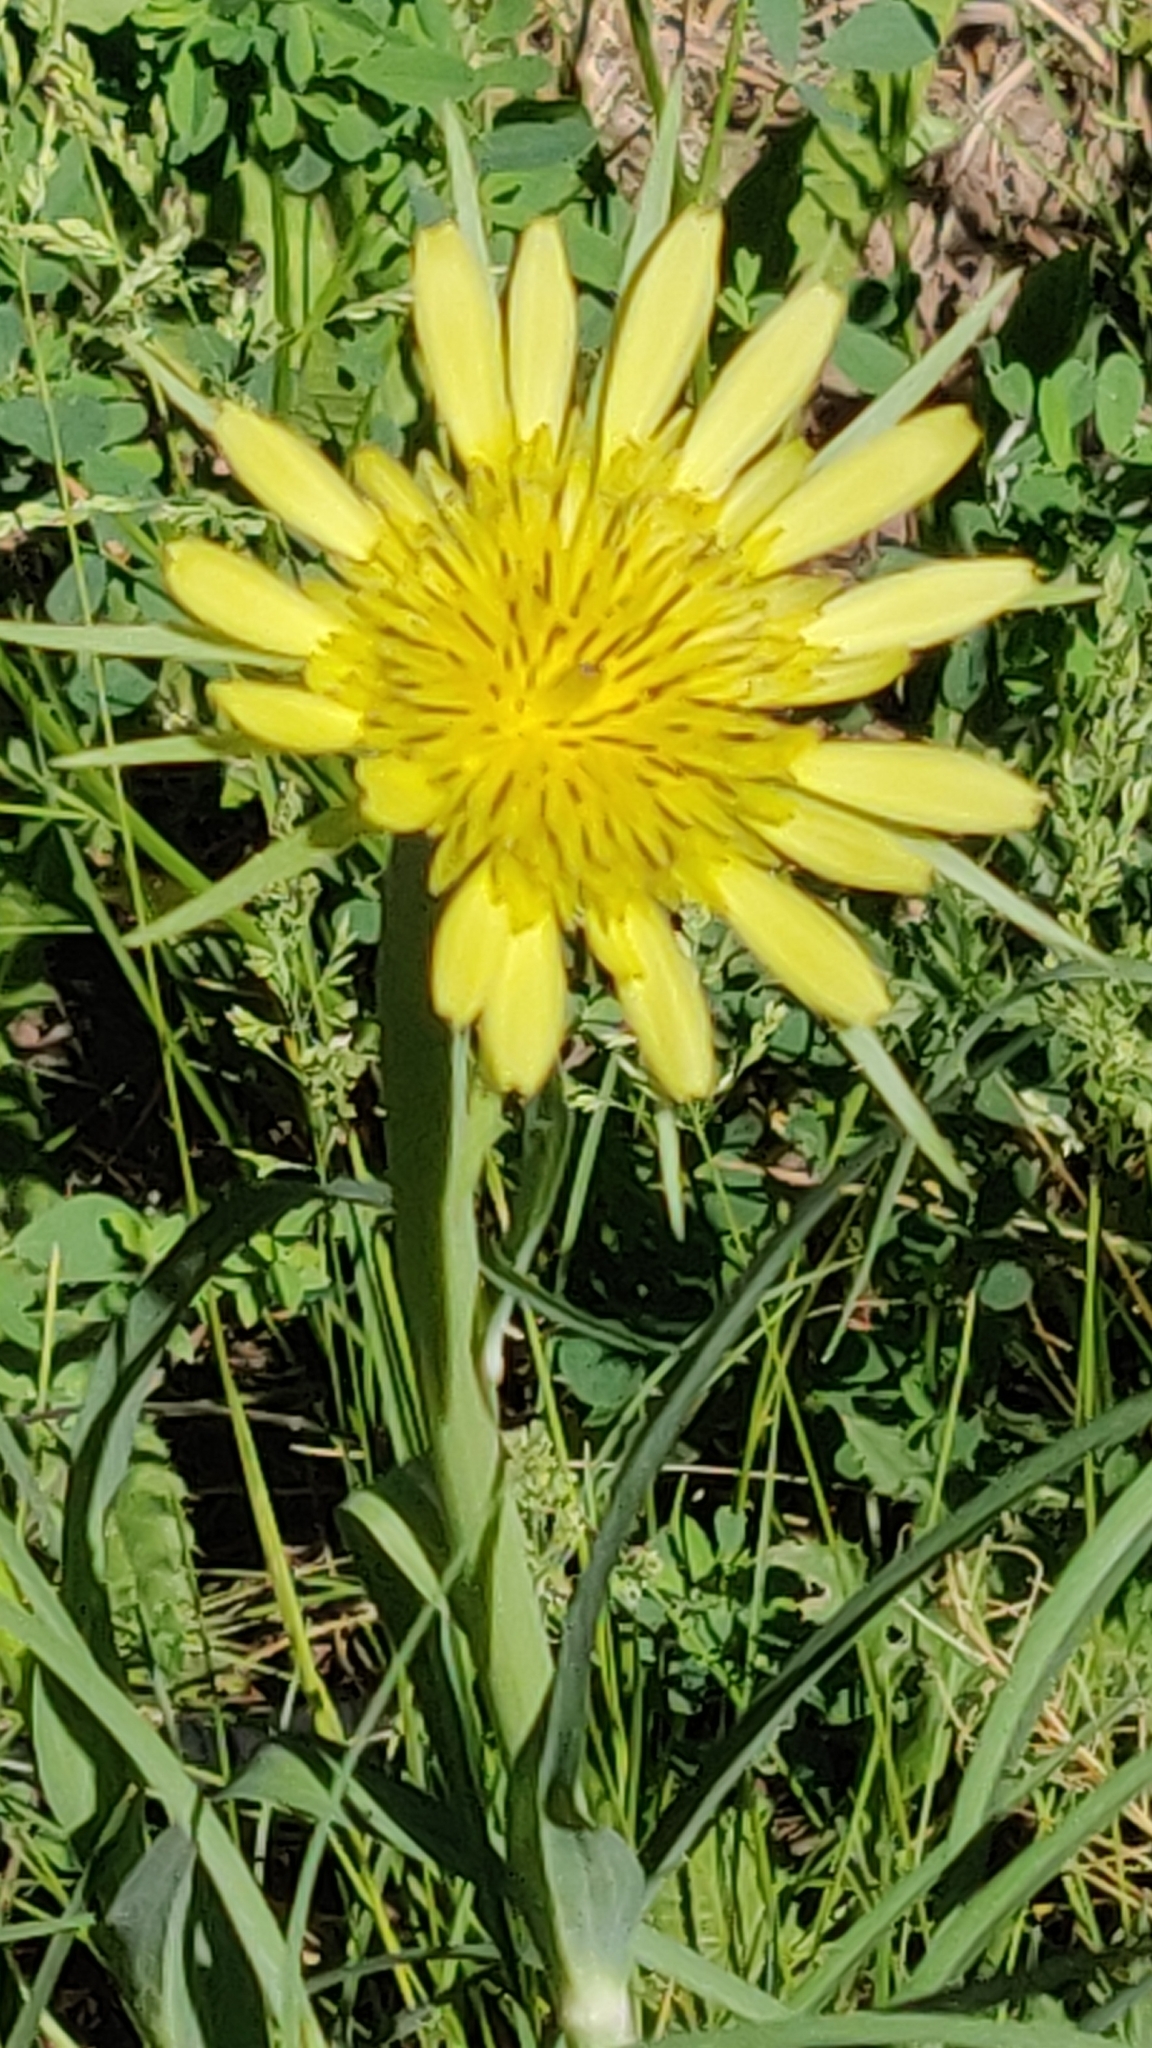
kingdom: Plantae
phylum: Tracheophyta
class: Magnoliopsida
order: Asterales
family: Asteraceae
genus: Tragopogon
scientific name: Tragopogon dubius
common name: Yellow salsify
